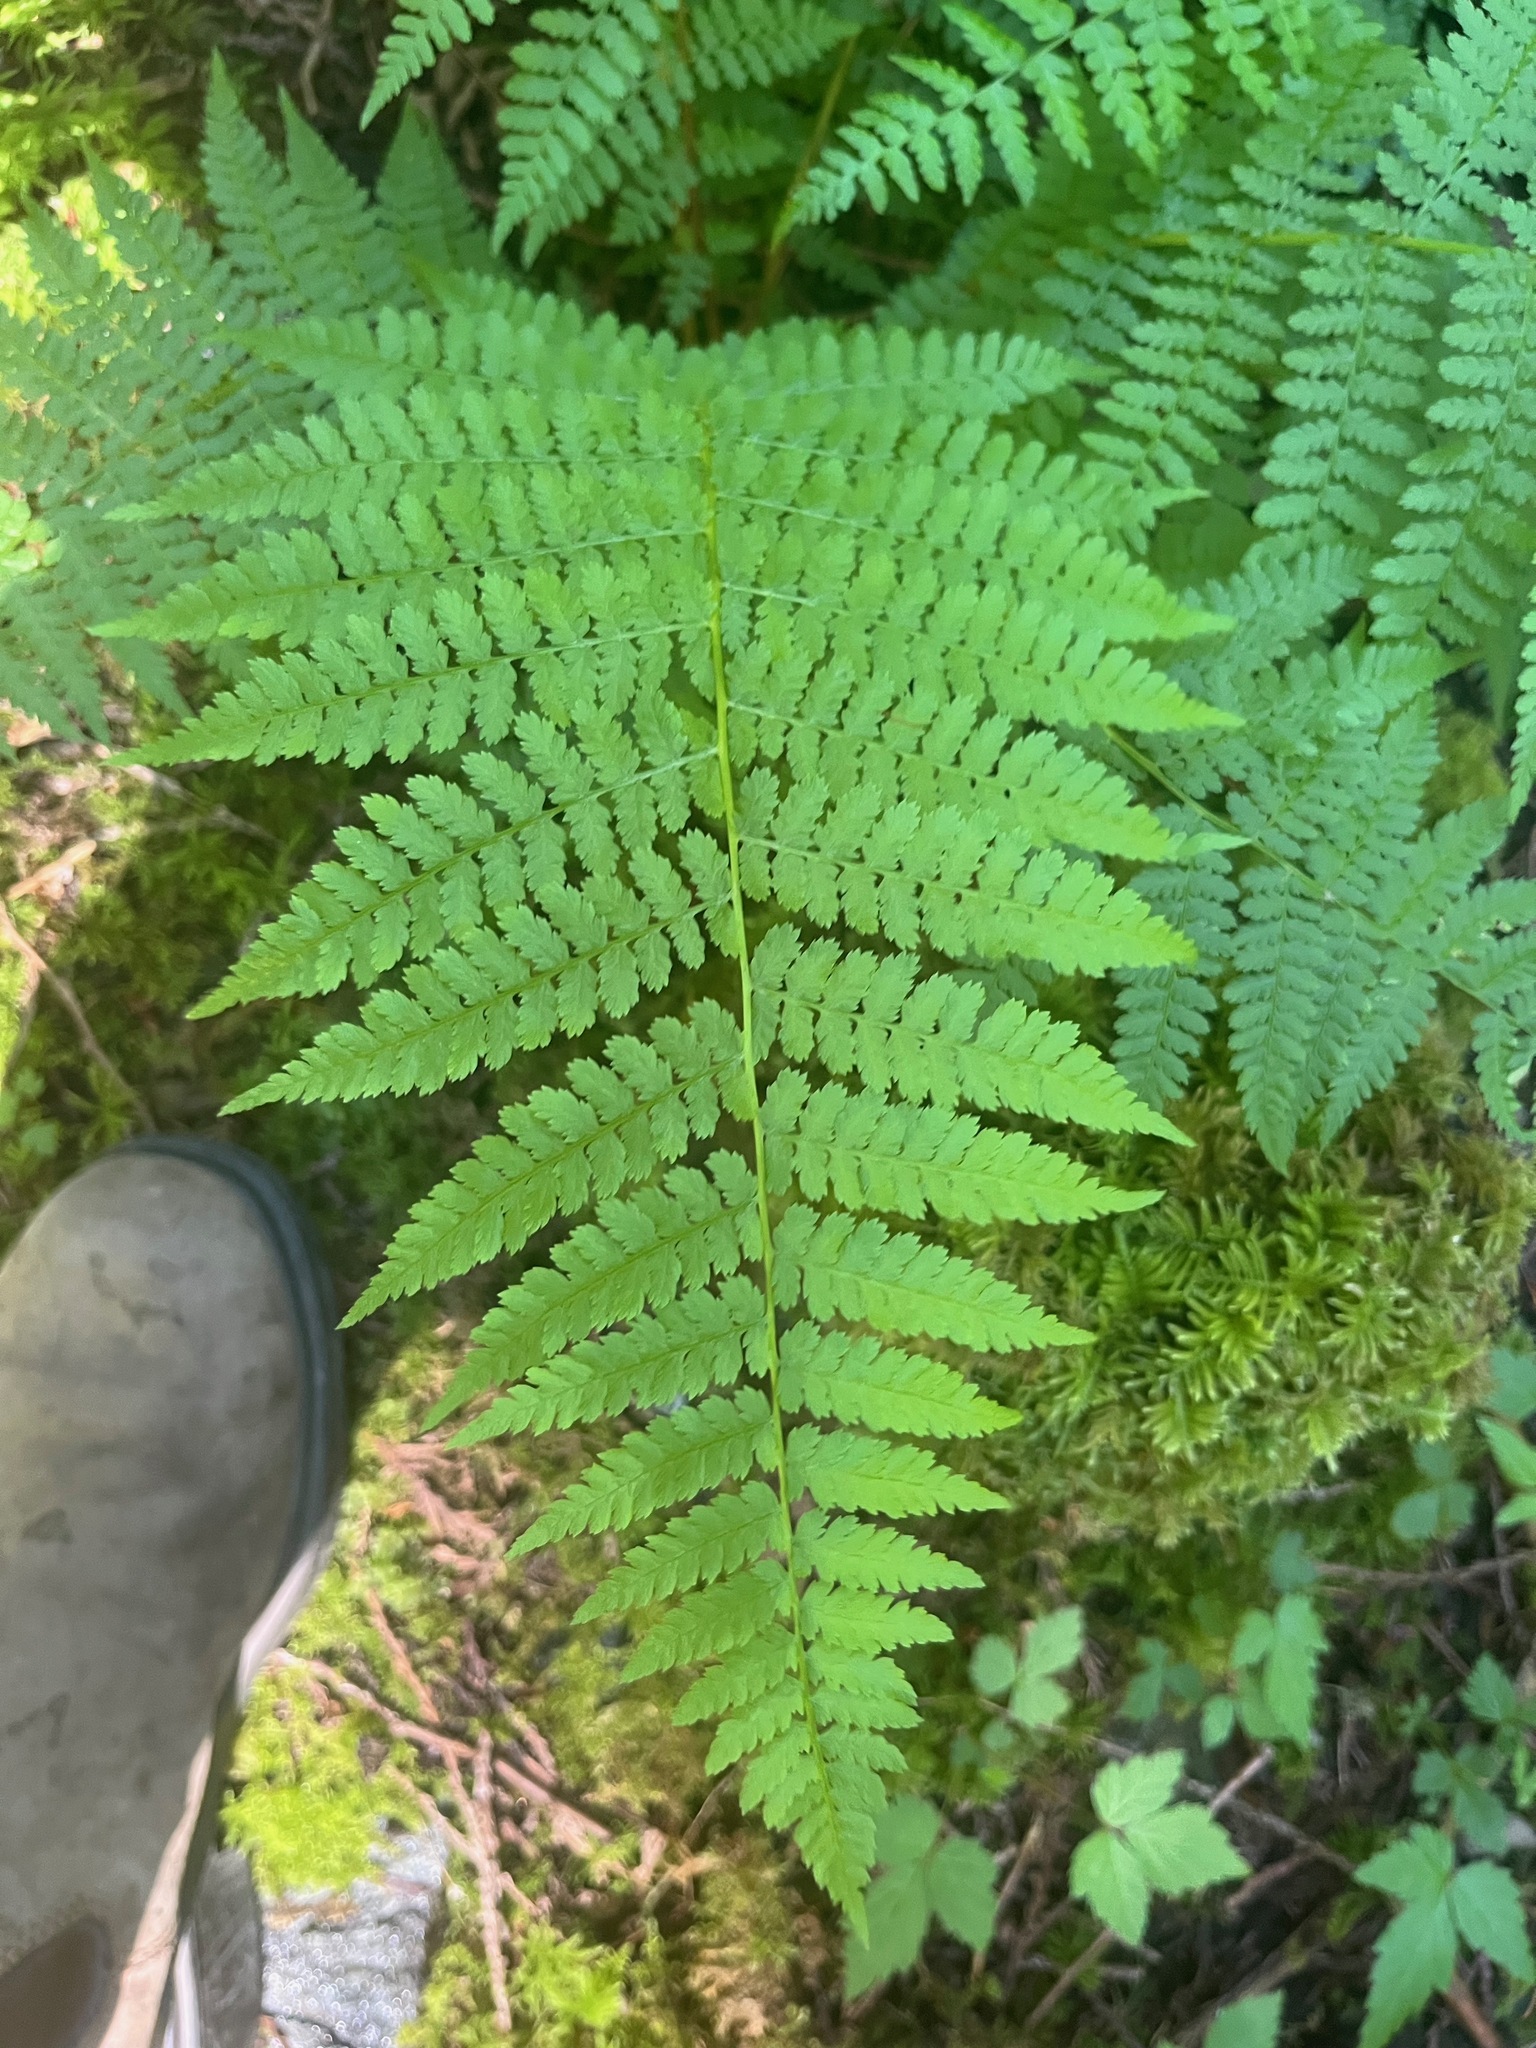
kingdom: Plantae
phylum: Tracheophyta
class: Polypodiopsida
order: Polypodiales
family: Athyriaceae
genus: Athyrium
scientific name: Athyrium filix-femina
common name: Lady fern
